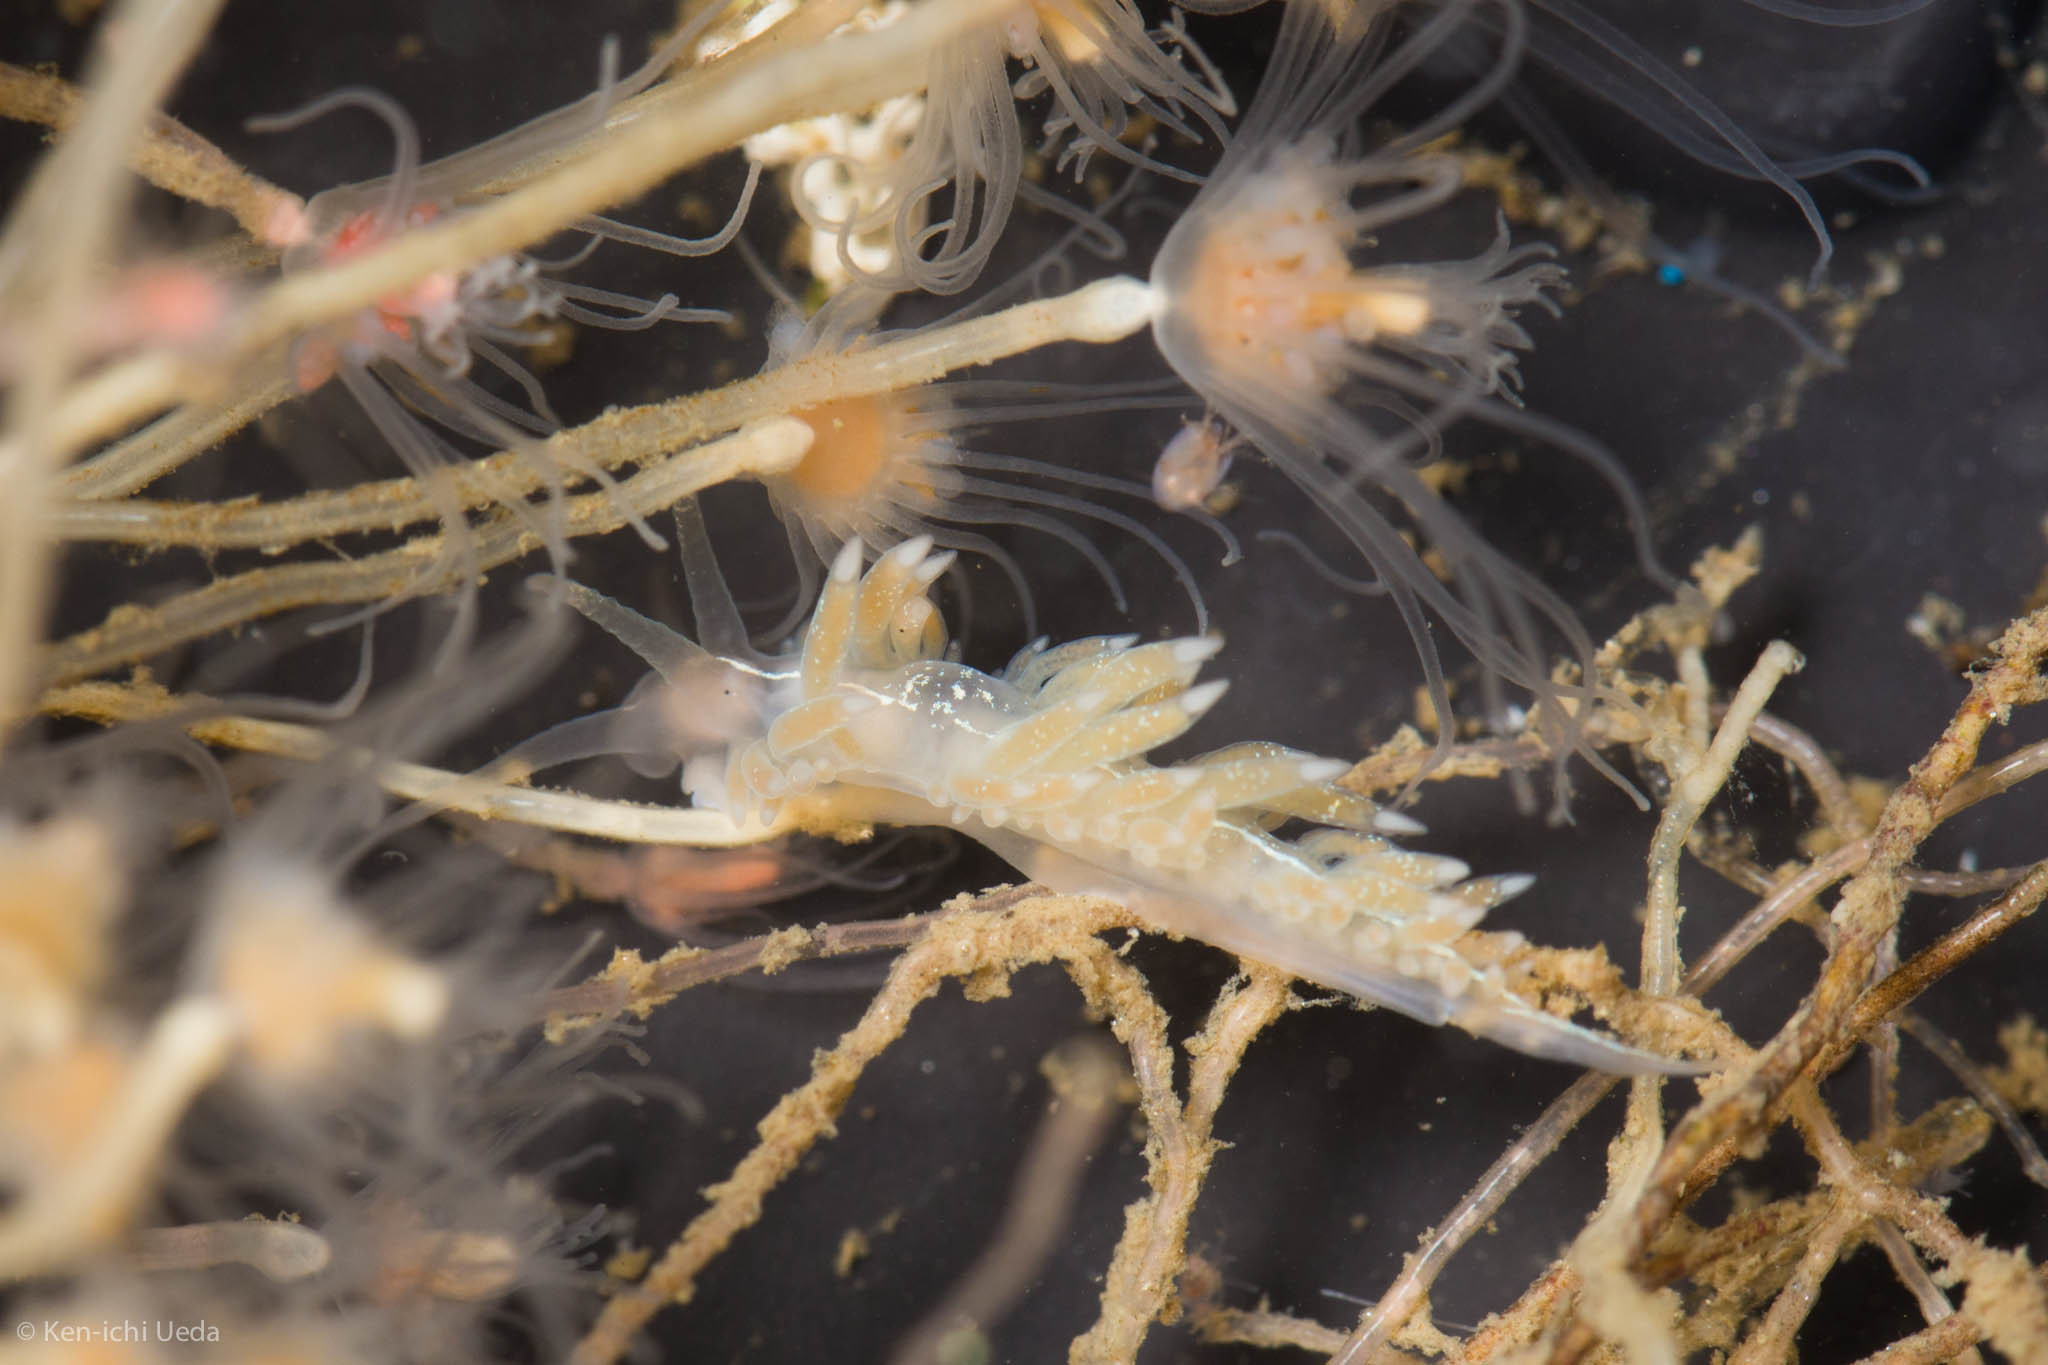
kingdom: Animalia
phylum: Mollusca
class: Gastropoda
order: Nudibranchia
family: Coryphellidae
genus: Coryphella
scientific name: Coryphella cooperi
